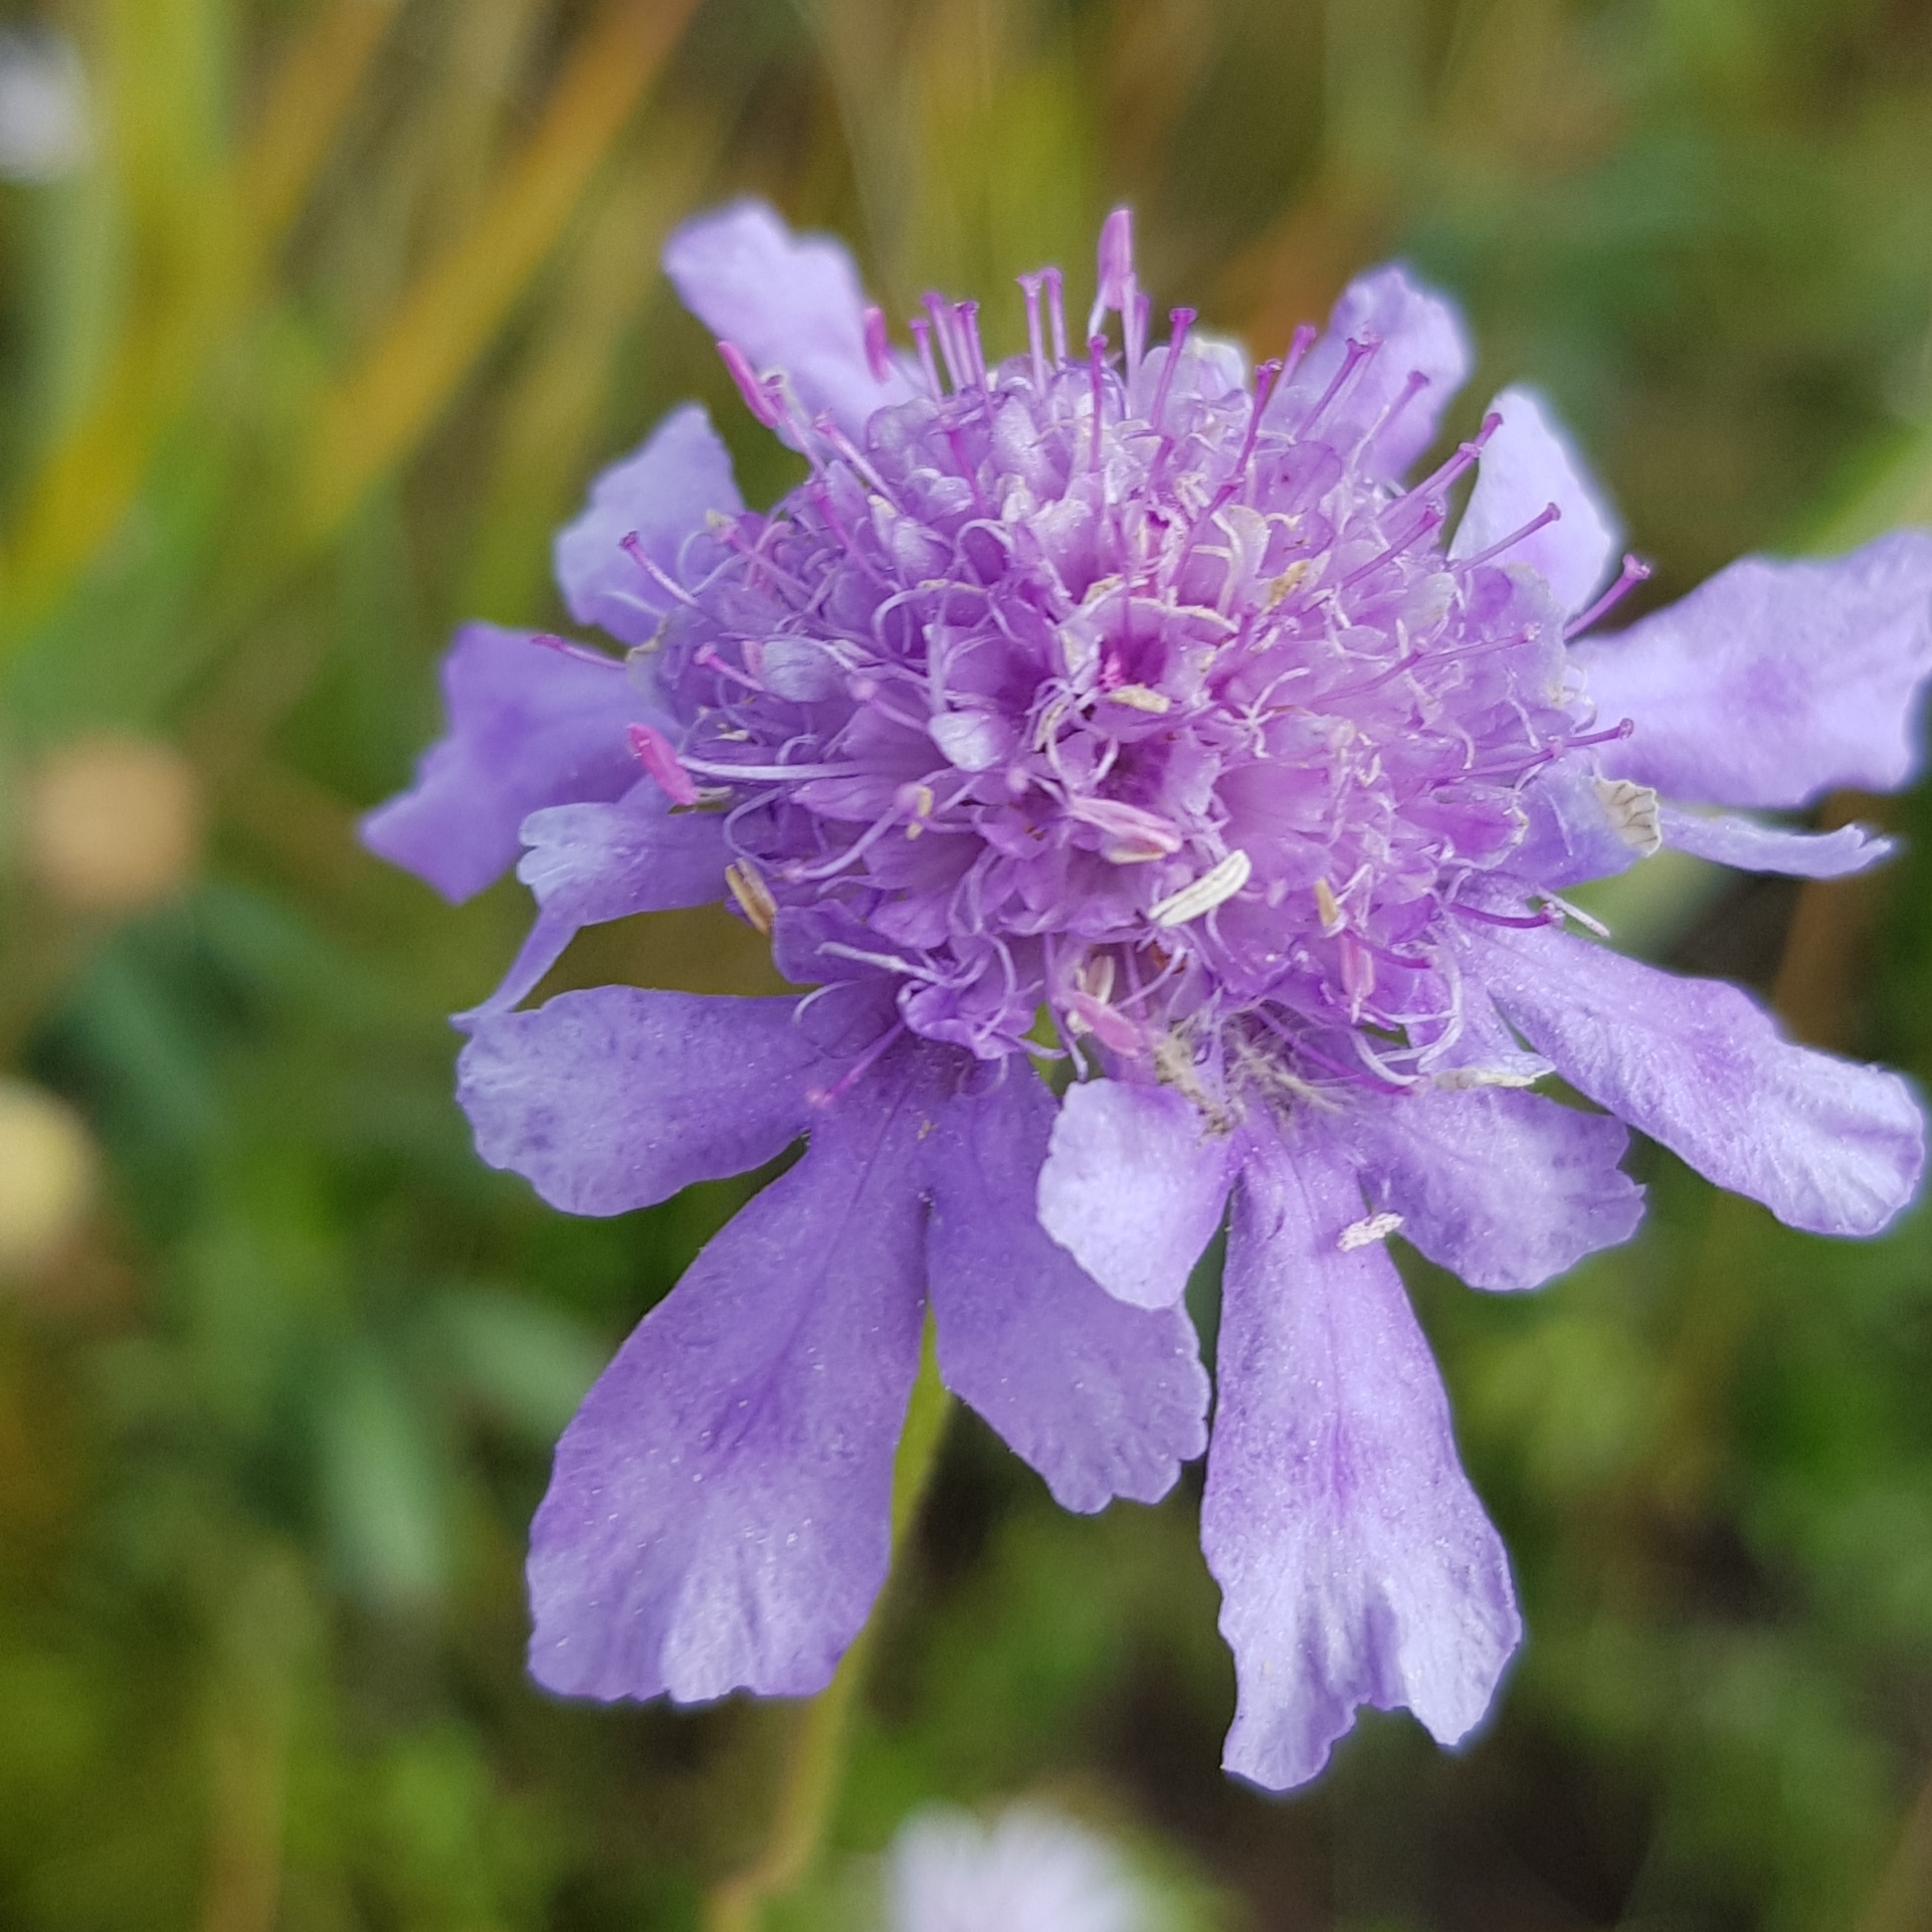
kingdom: Plantae
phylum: Tracheophyta
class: Magnoliopsida
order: Dipsacales
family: Caprifoliaceae
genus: Scabiosa
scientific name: Scabiosa comosa
